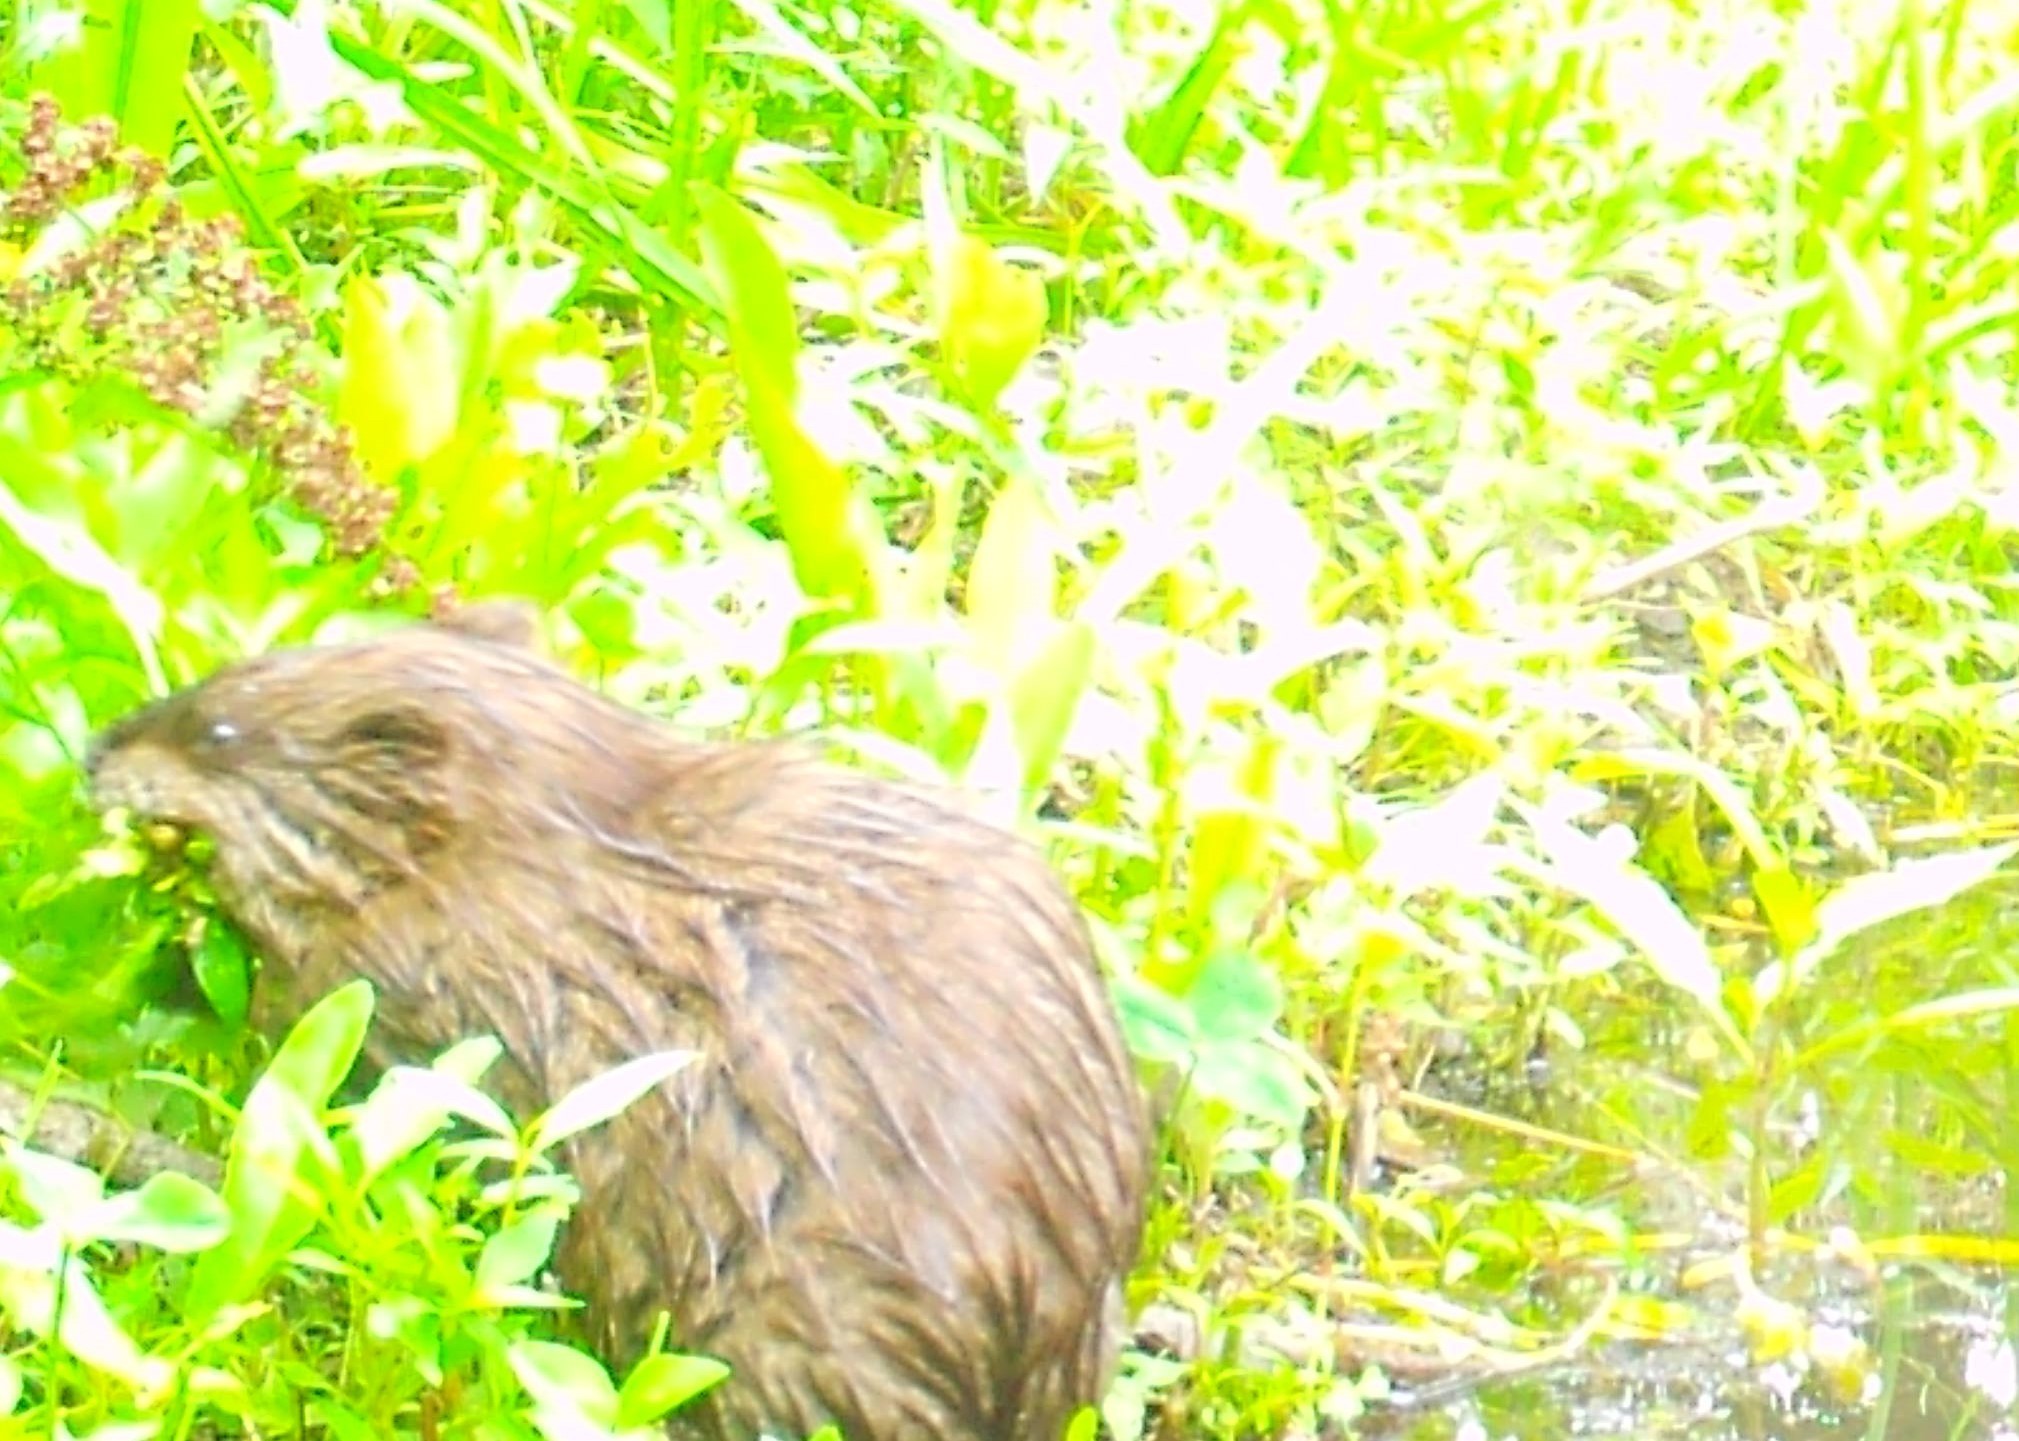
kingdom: Animalia
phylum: Chordata
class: Mammalia
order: Rodentia
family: Cricetidae
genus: Ondatra
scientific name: Ondatra zibethicus
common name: Muskrat
